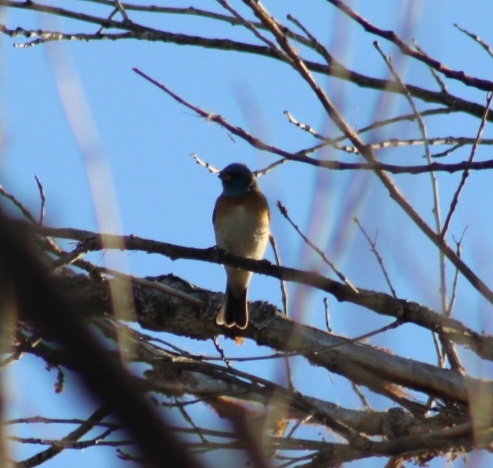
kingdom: Animalia
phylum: Chordata
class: Aves
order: Passeriformes
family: Cardinalidae
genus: Passerina
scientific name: Passerina amoena
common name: Lazuli bunting
